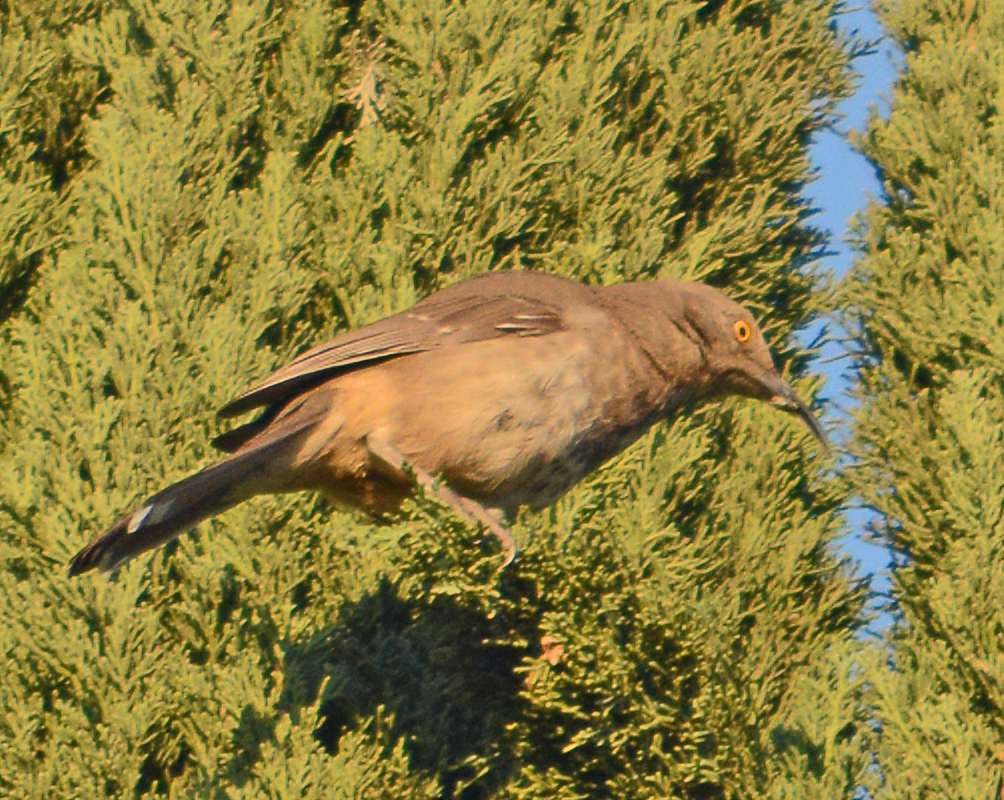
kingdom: Animalia
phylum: Chordata
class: Aves
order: Passeriformes
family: Mimidae
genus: Toxostoma
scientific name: Toxostoma curvirostre
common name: Curve-billed thrasher
